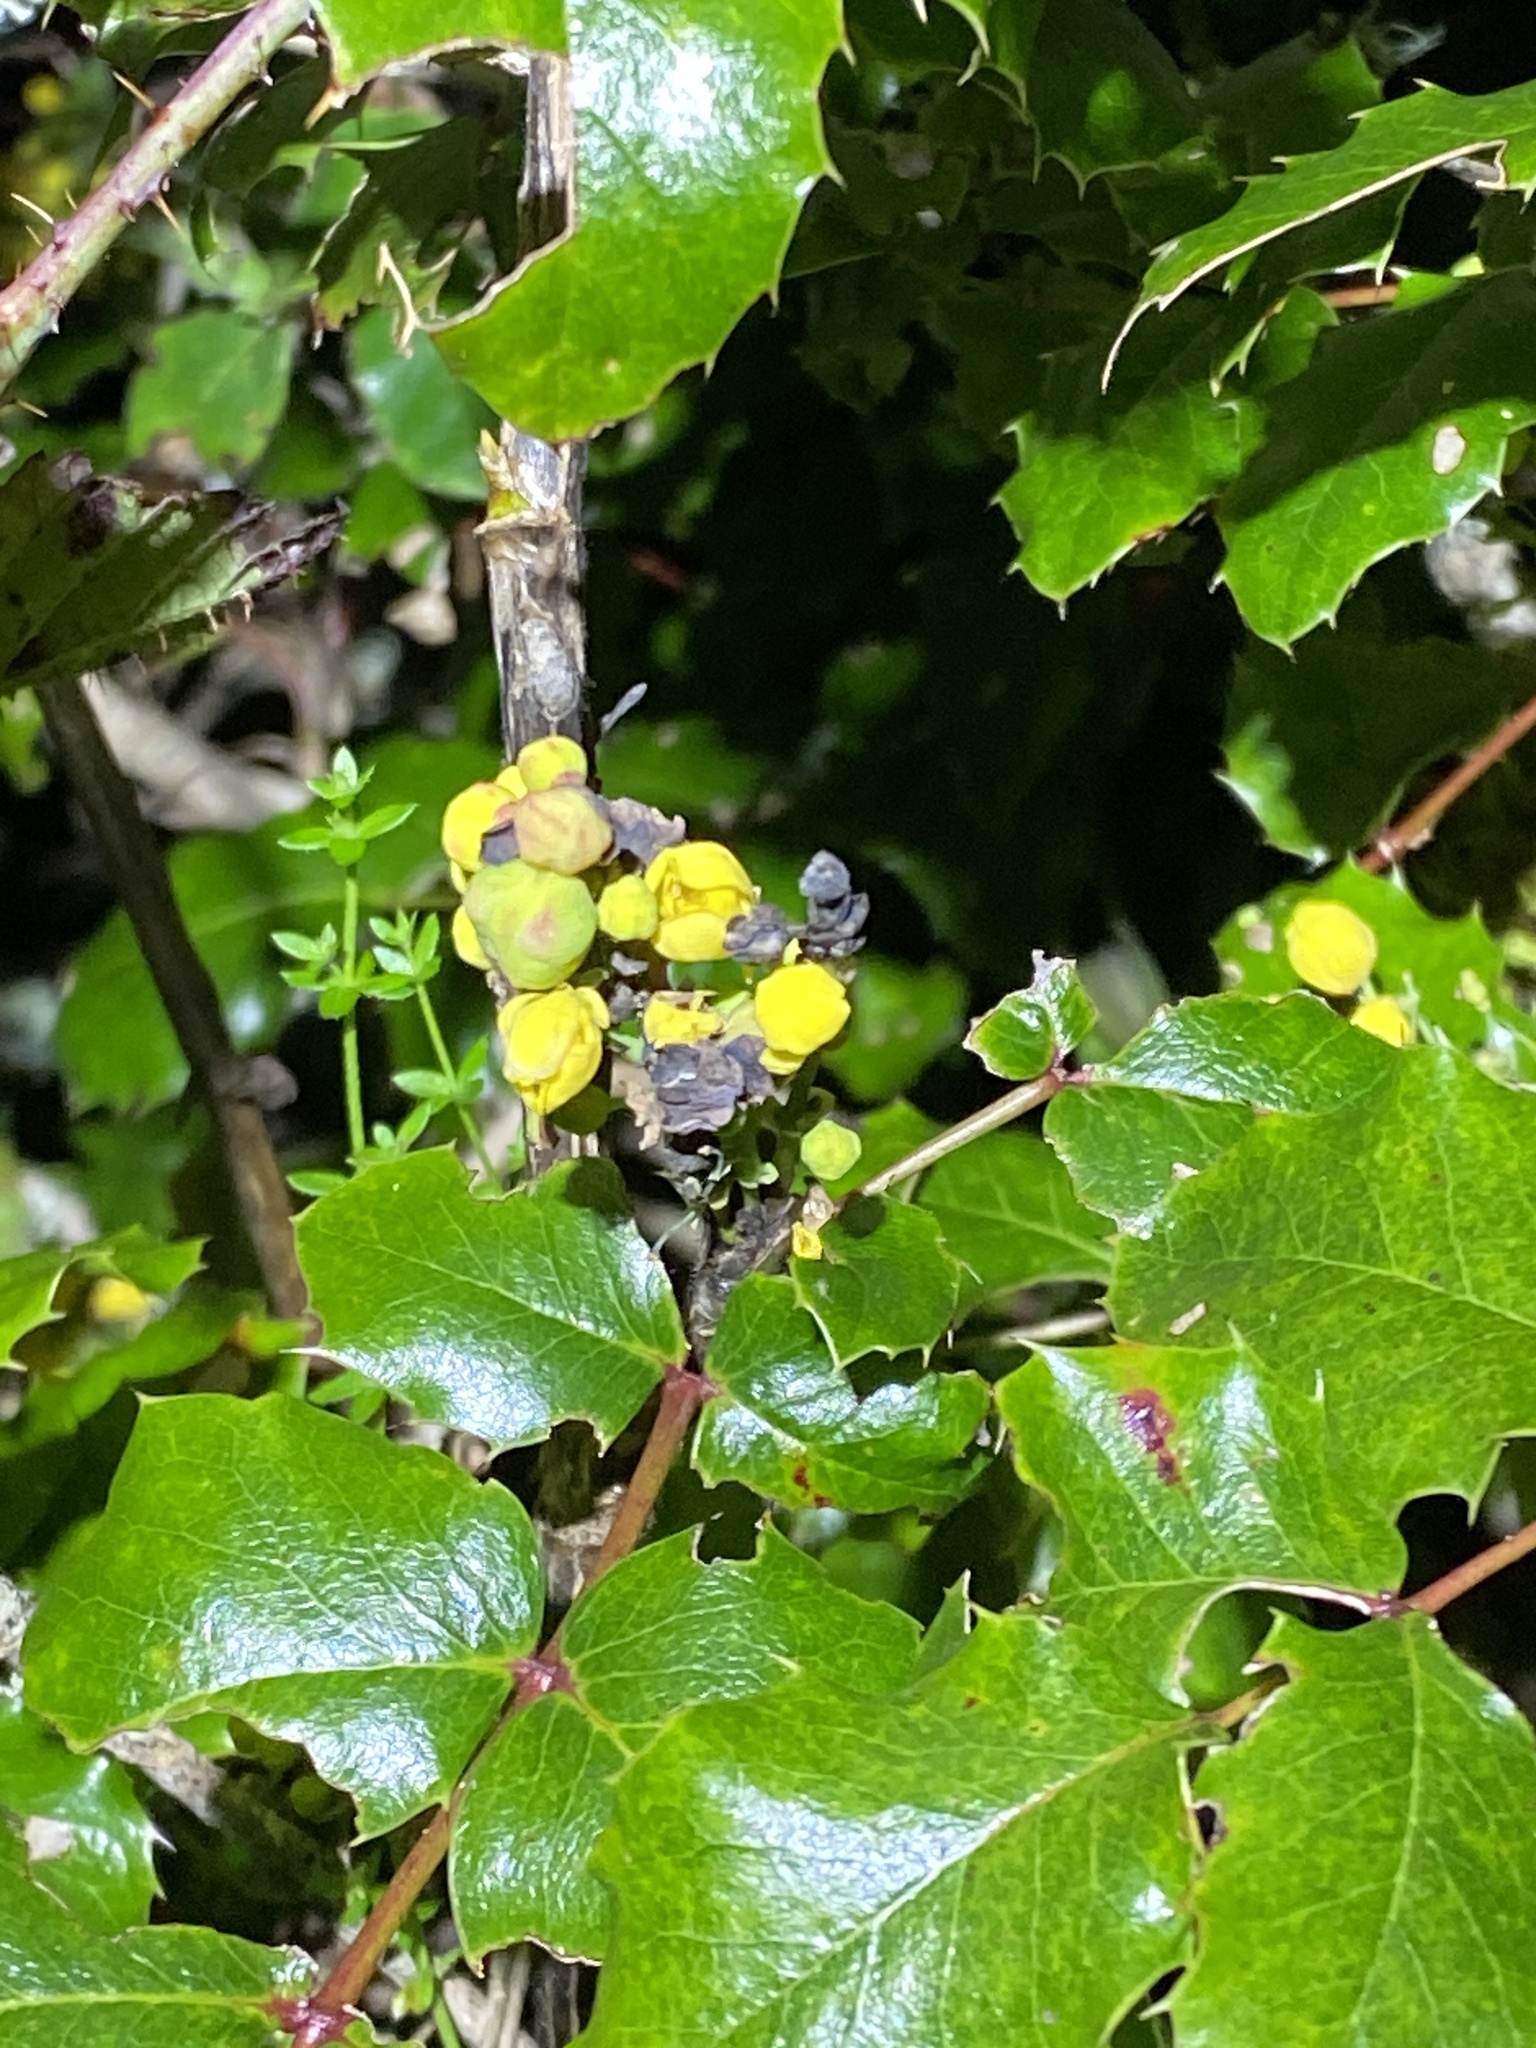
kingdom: Plantae
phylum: Tracheophyta
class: Magnoliopsida
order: Ranunculales
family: Berberidaceae
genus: Mahonia
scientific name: Mahonia
